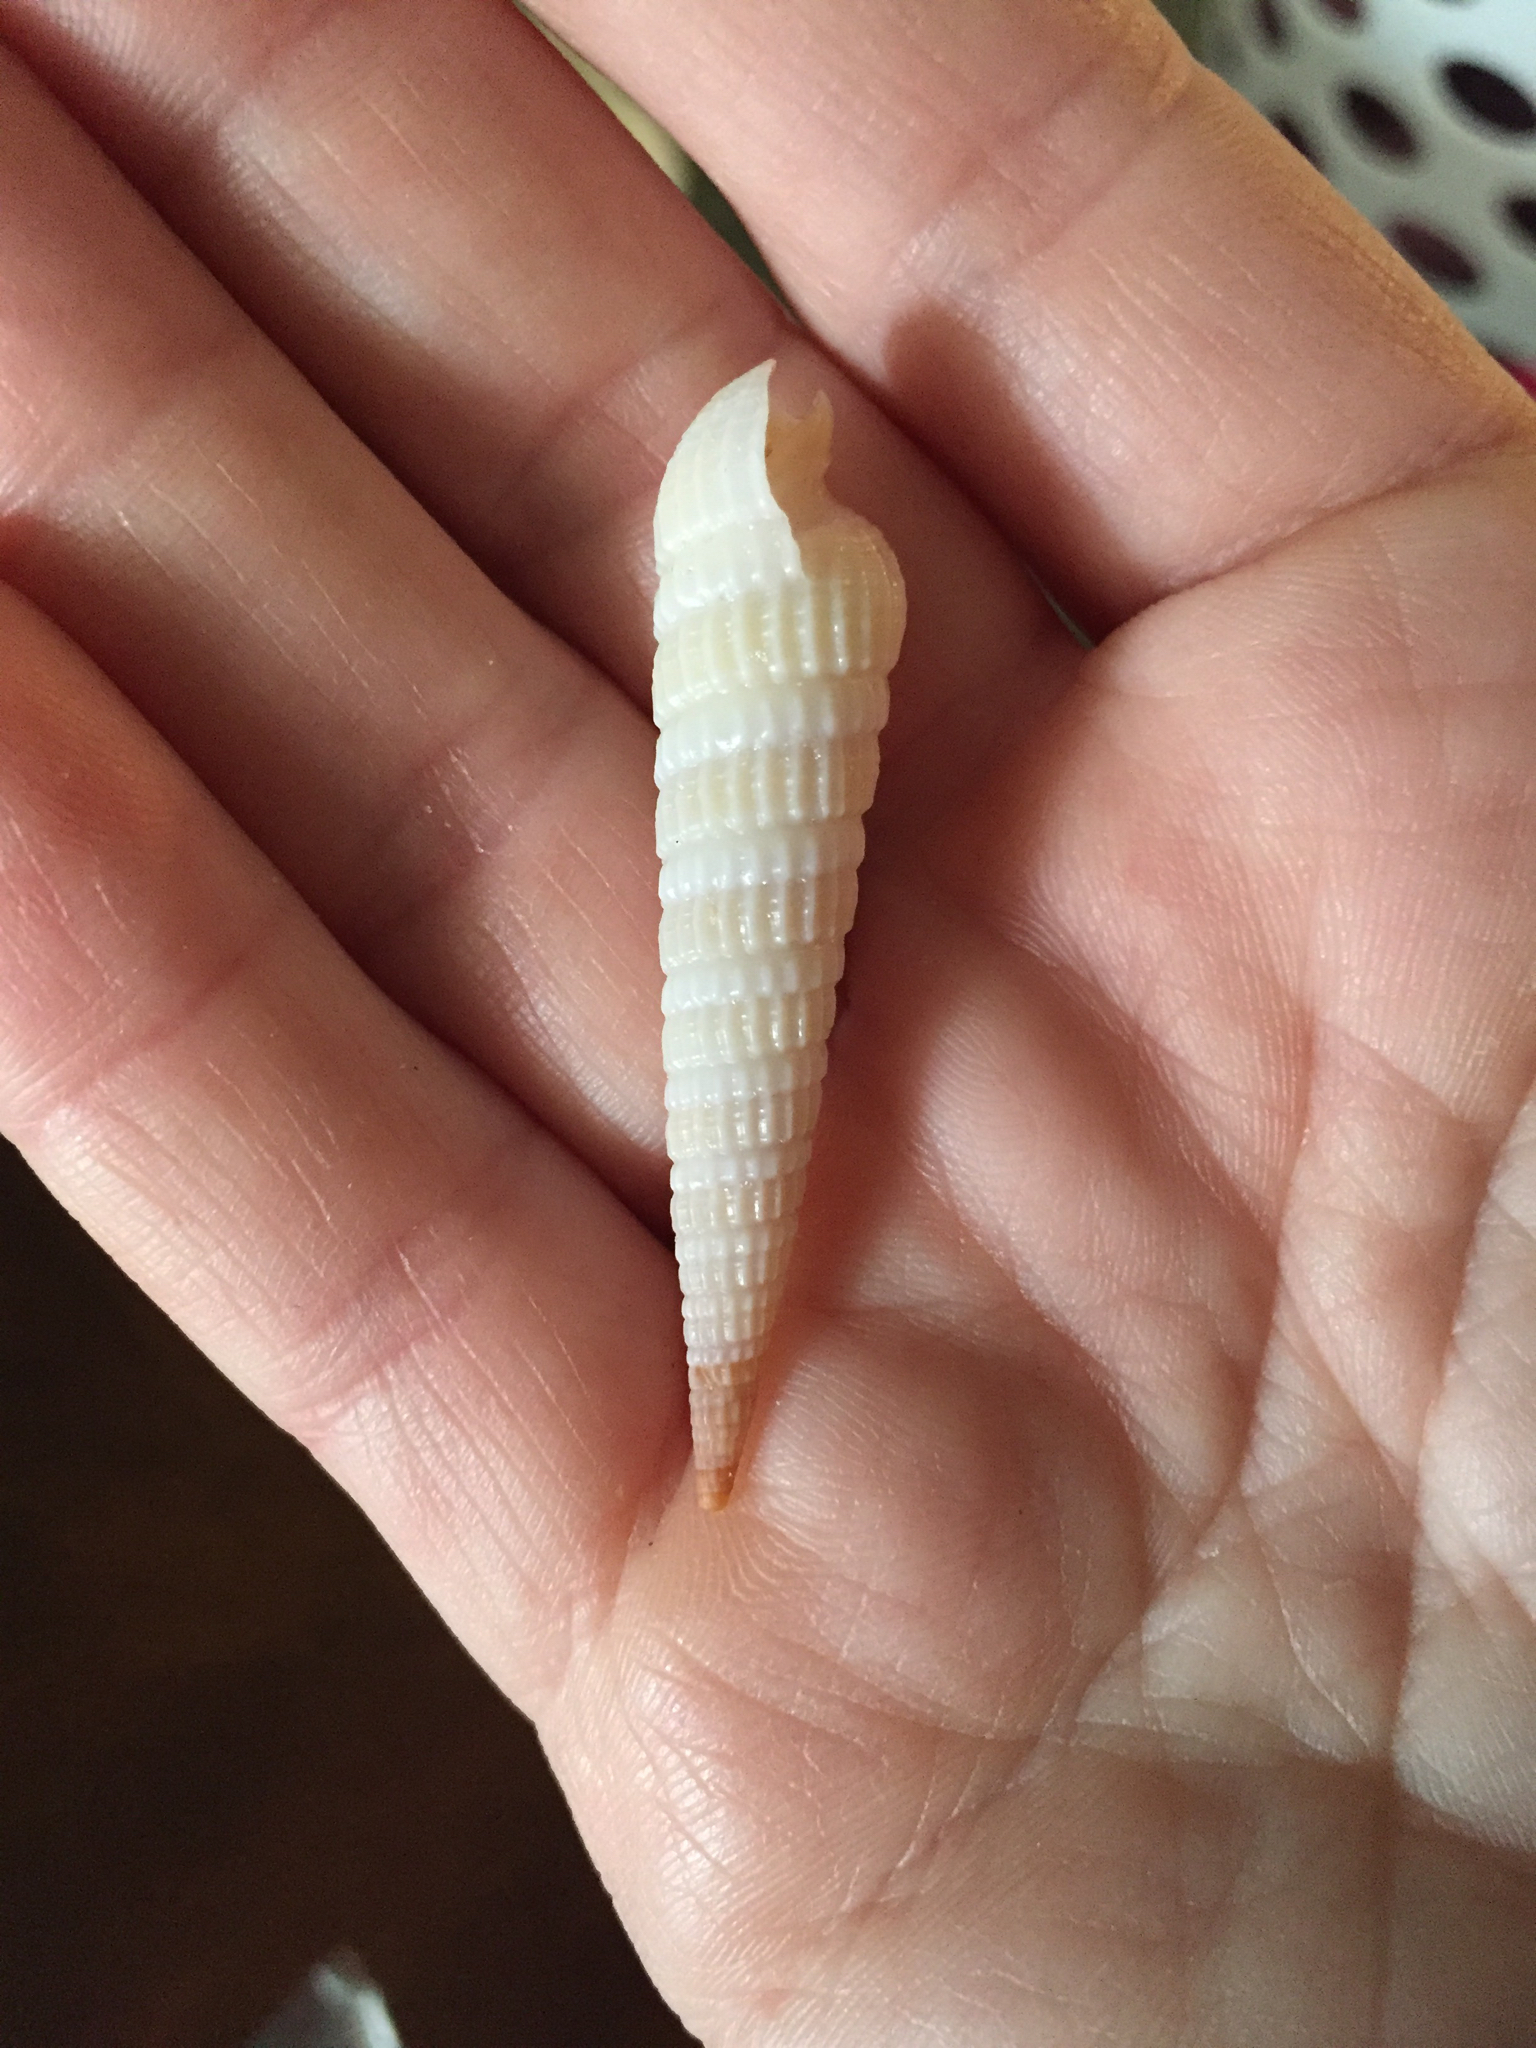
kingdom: Animalia
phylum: Mollusca
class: Gastropoda
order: Neogastropoda
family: Terebridae
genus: Neoterebra
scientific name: Neoterebra dislocata
